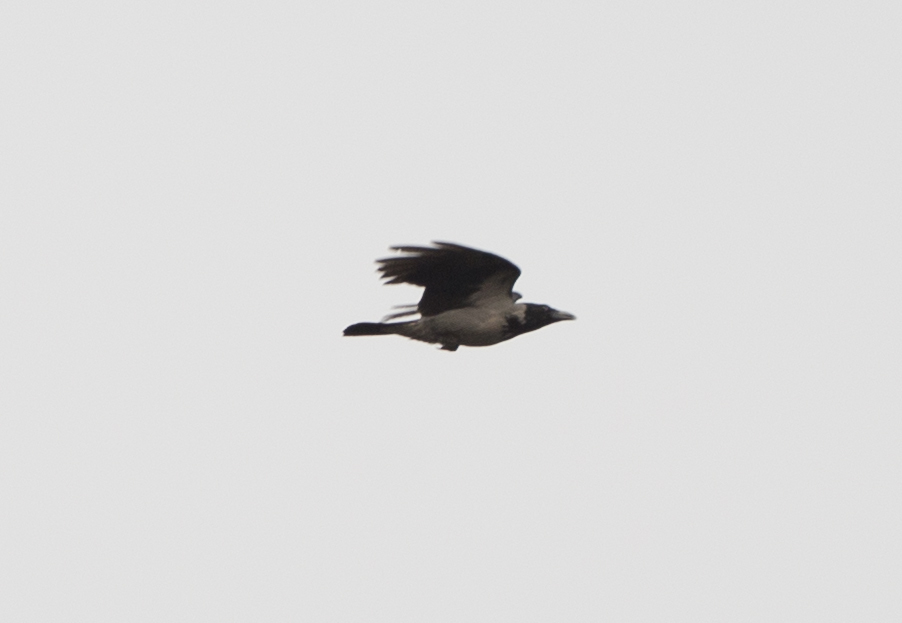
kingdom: Animalia
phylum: Chordata
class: Aves
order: Passeriformes
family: Corvidae
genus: Corvus
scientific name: Corvus cornix
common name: Hooded crow
